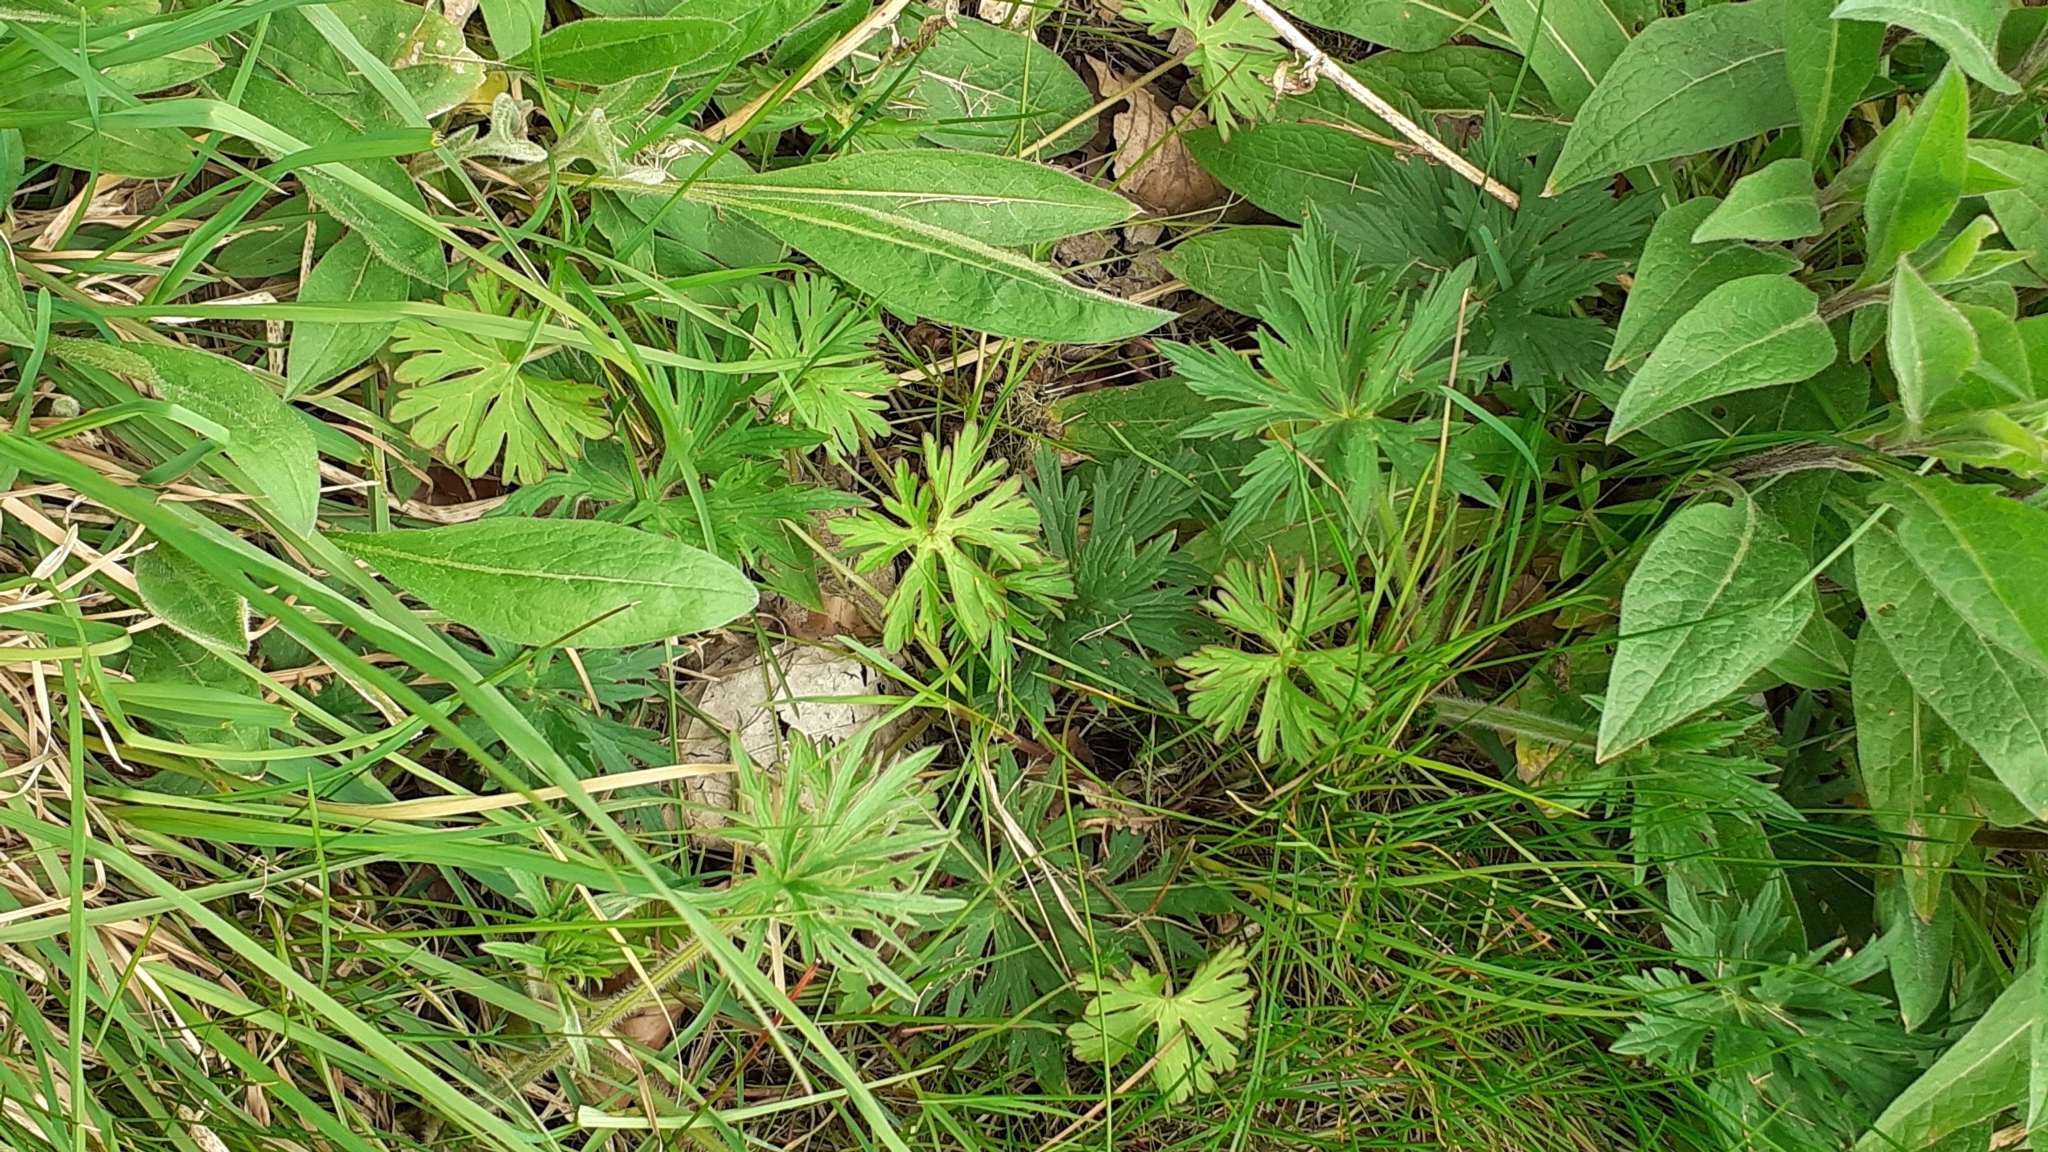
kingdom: Plantae
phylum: Tracheophyta
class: Magnoliopsida
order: Geraniales
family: Geraniaceae
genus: Geranium
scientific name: Geranium dissectum
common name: Cut-leaved crane's-bill
